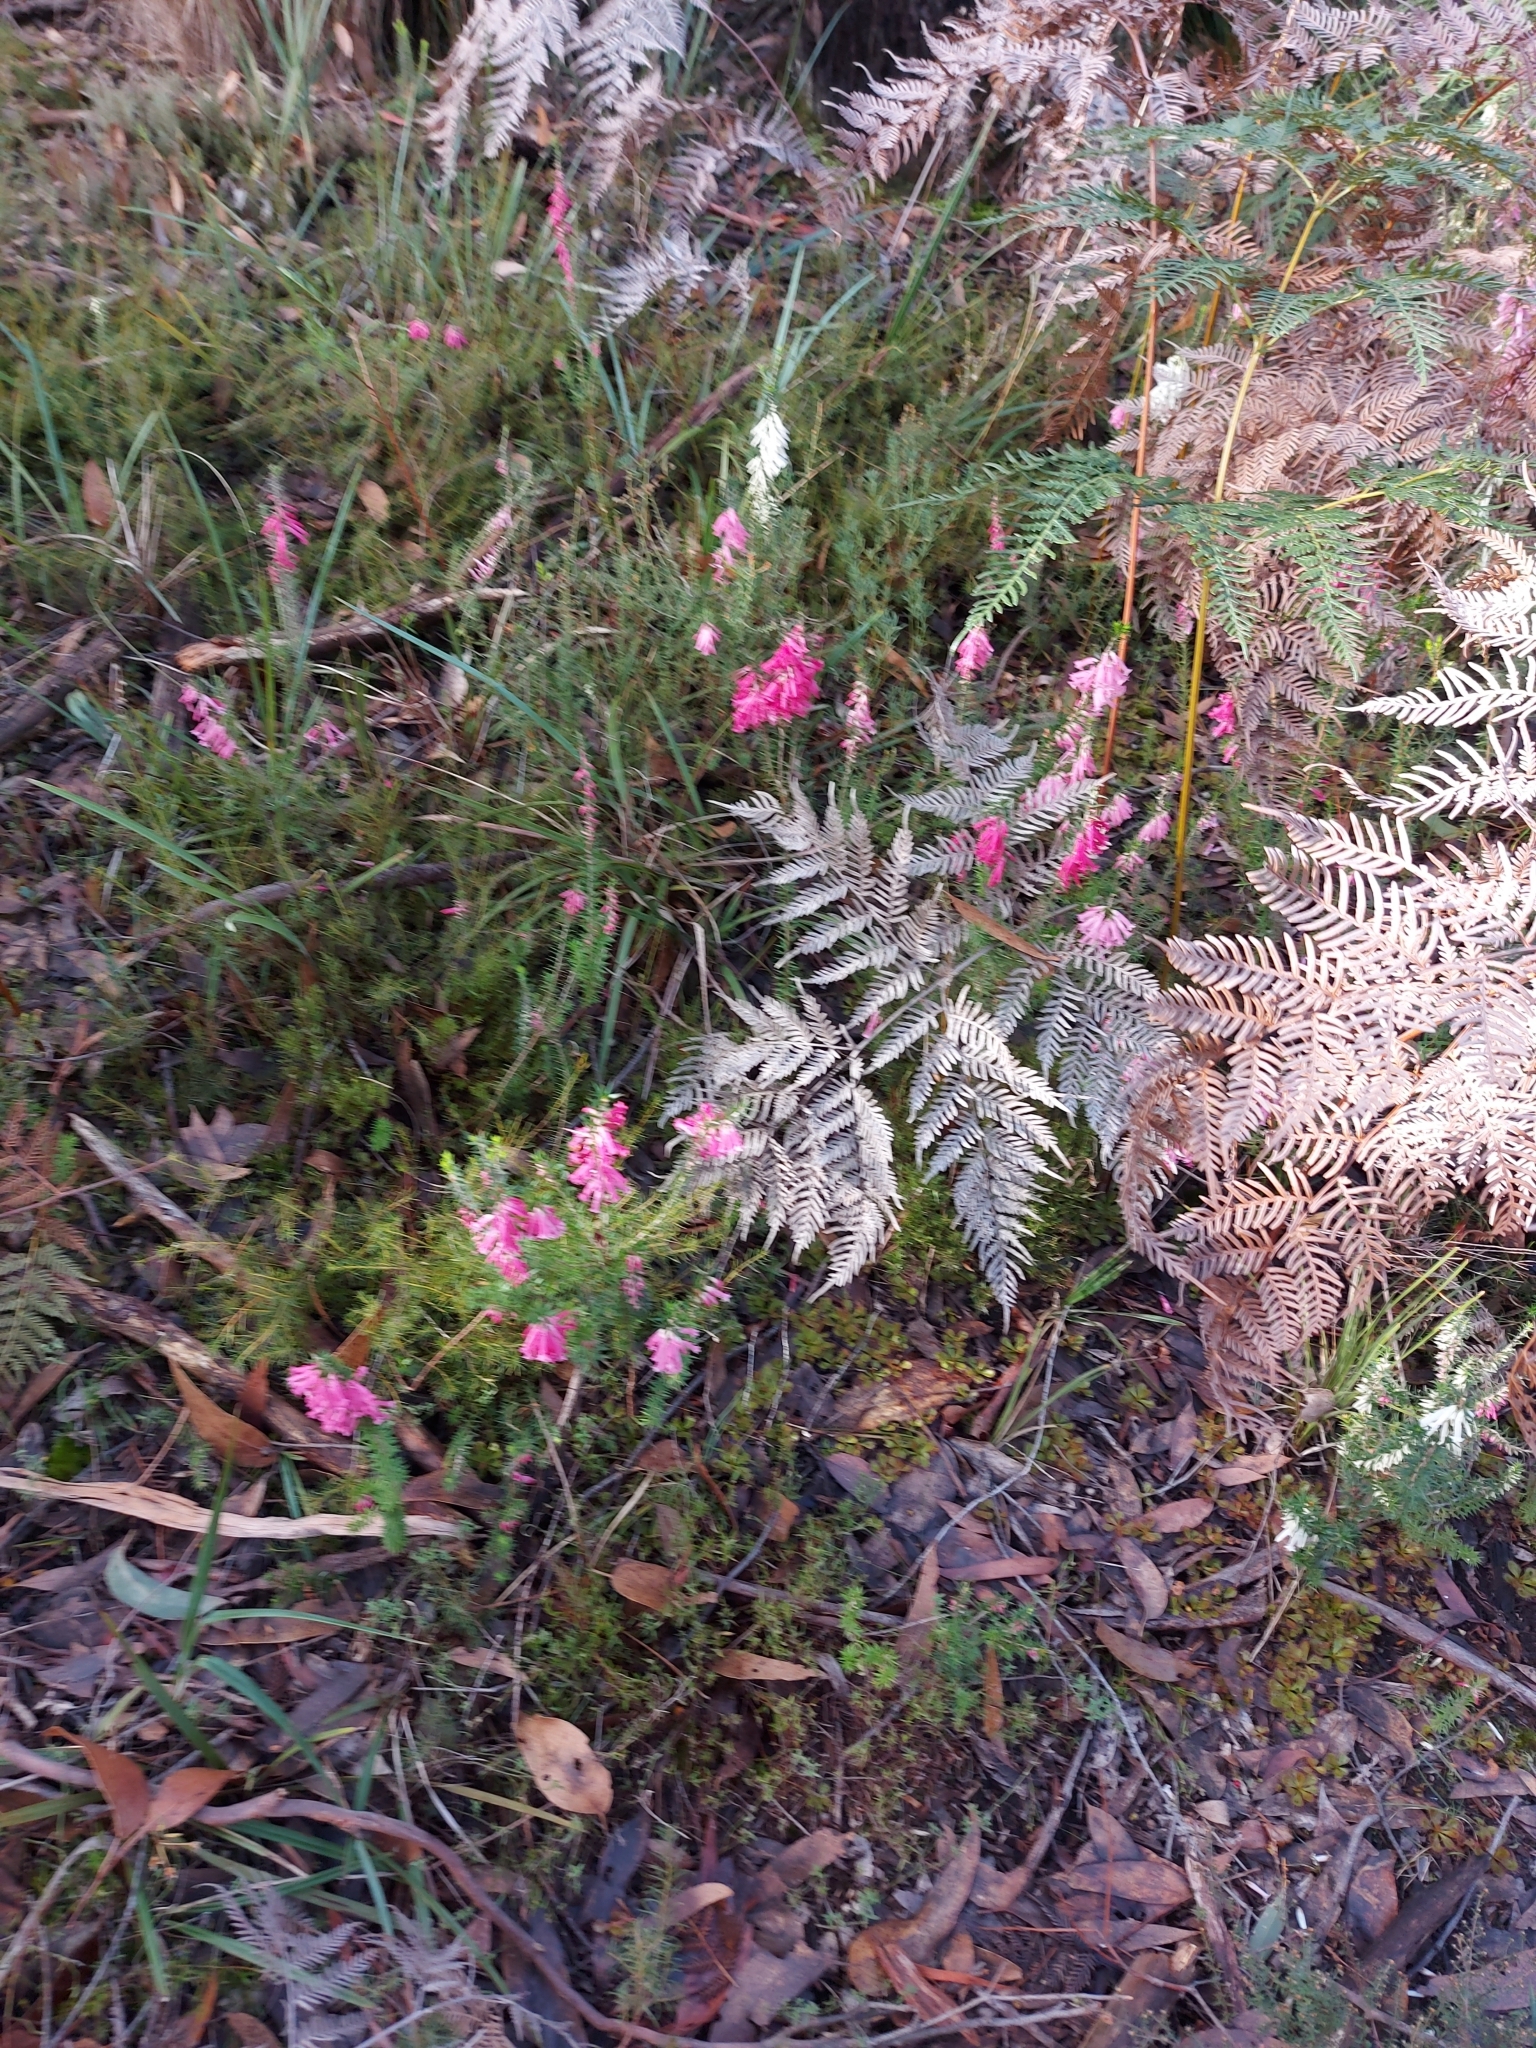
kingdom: Plantae
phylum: Tracheophyta
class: Magnoliopsida
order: Ericales
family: Ericaceae
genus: Epacris
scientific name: Epacris impressa
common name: Common-heath
